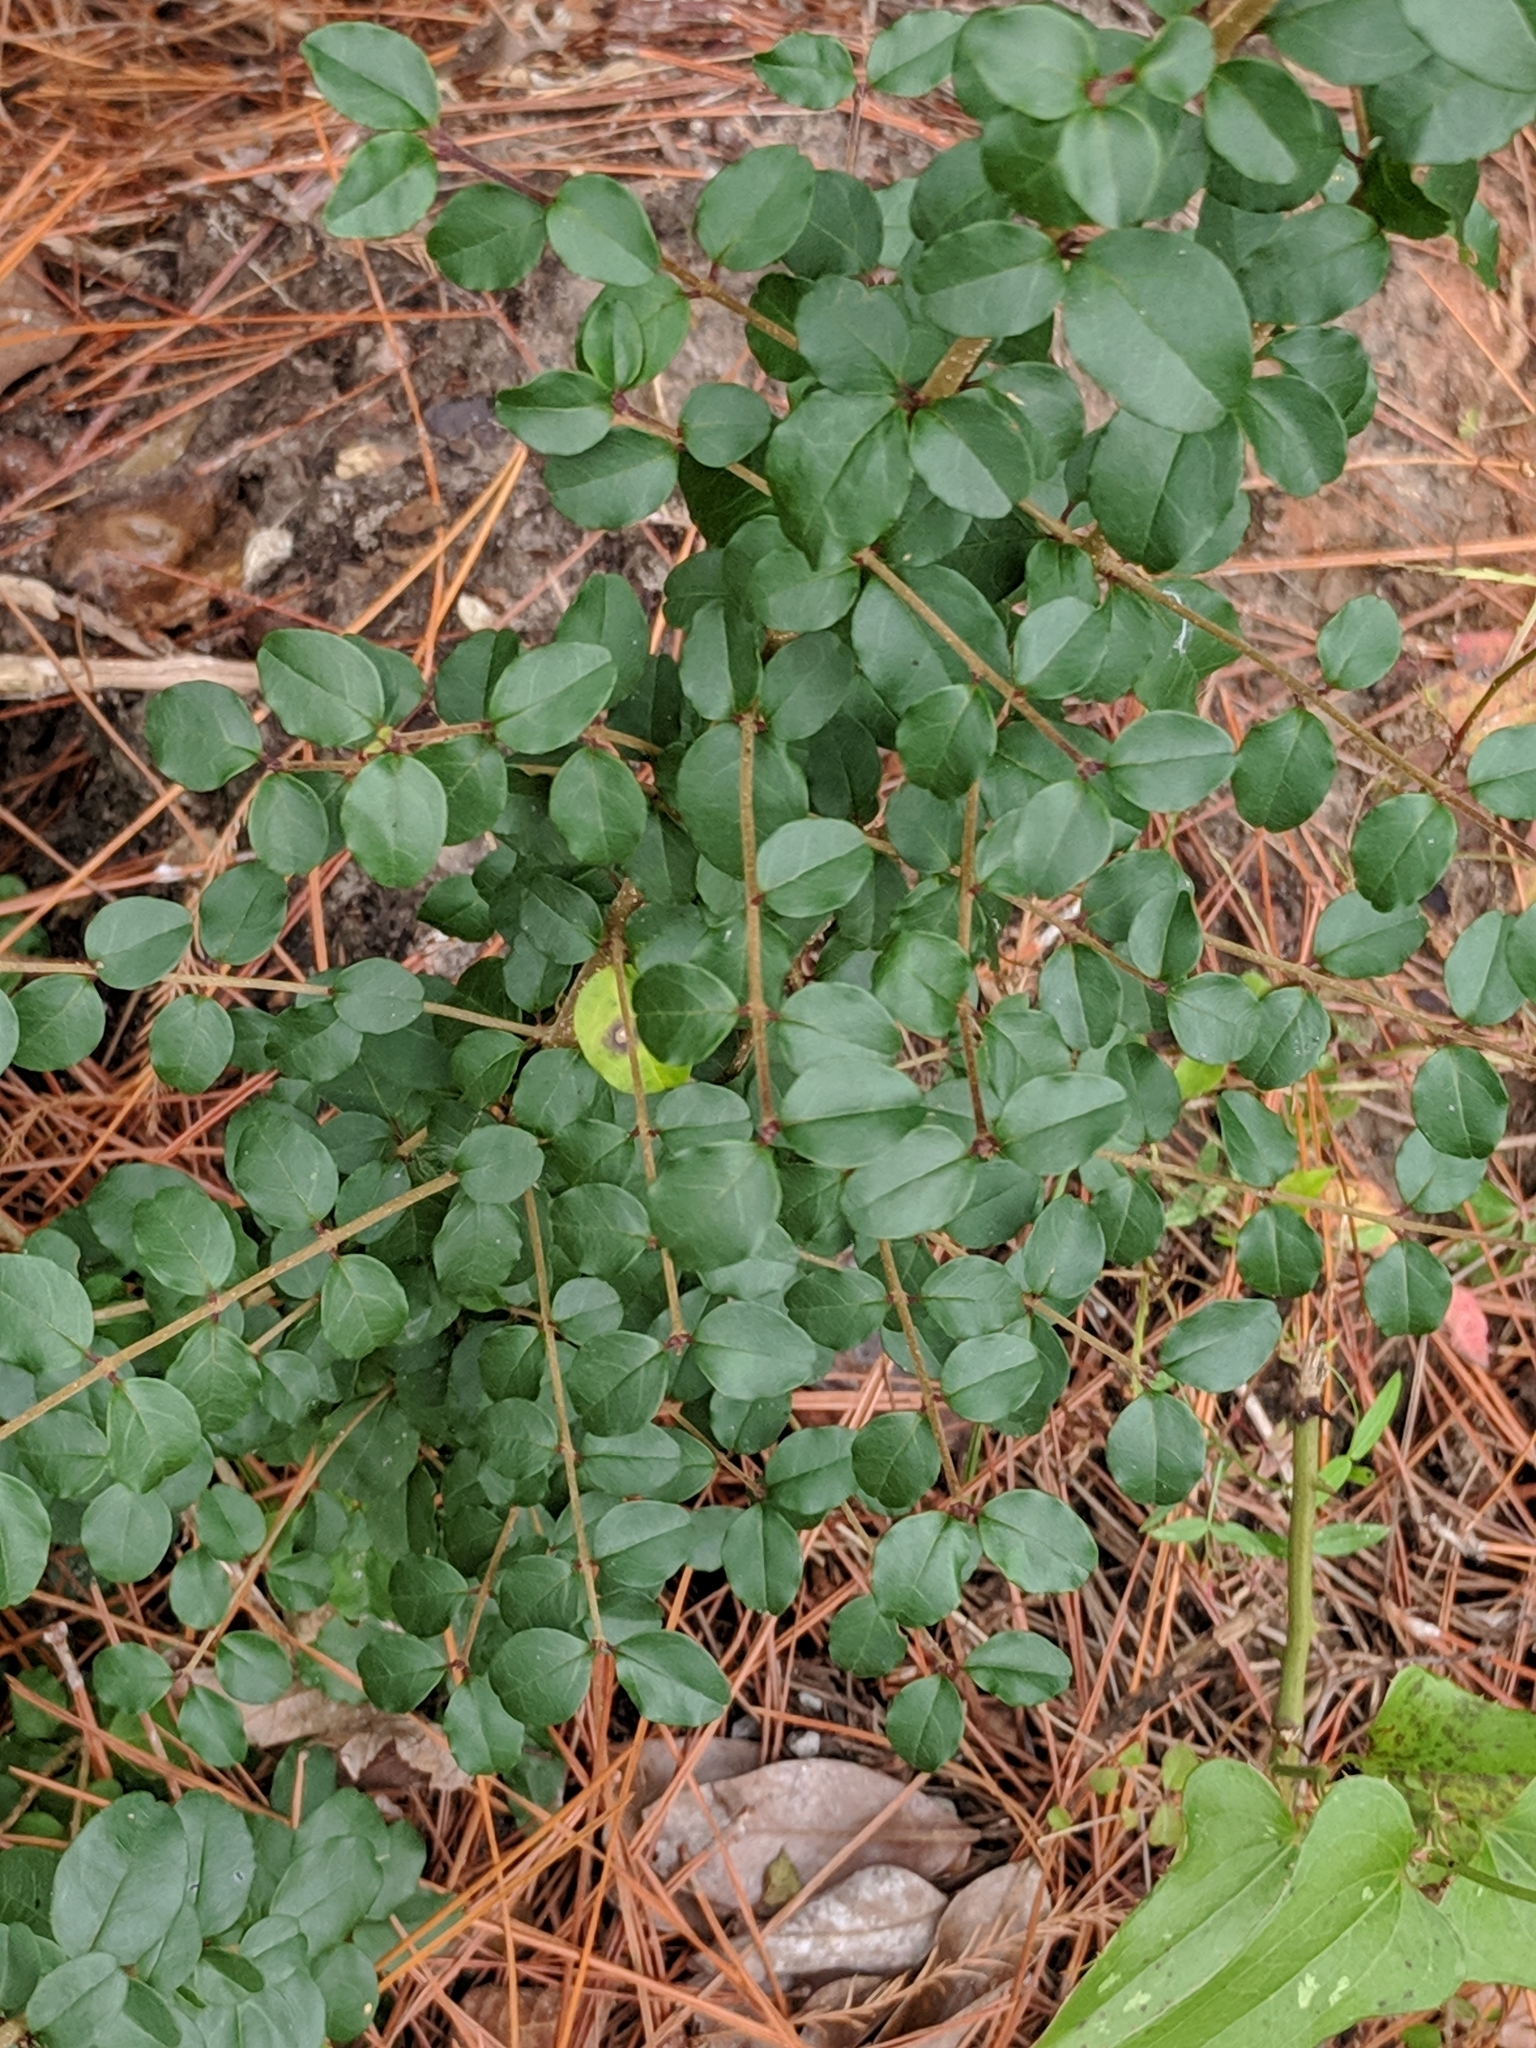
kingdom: Plantae
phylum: Tracheophyta
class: Magnoliopsida
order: Lamiales
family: Oleaceae
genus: Ligustrum
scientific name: Ligustrum sinense
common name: Chinese privet
